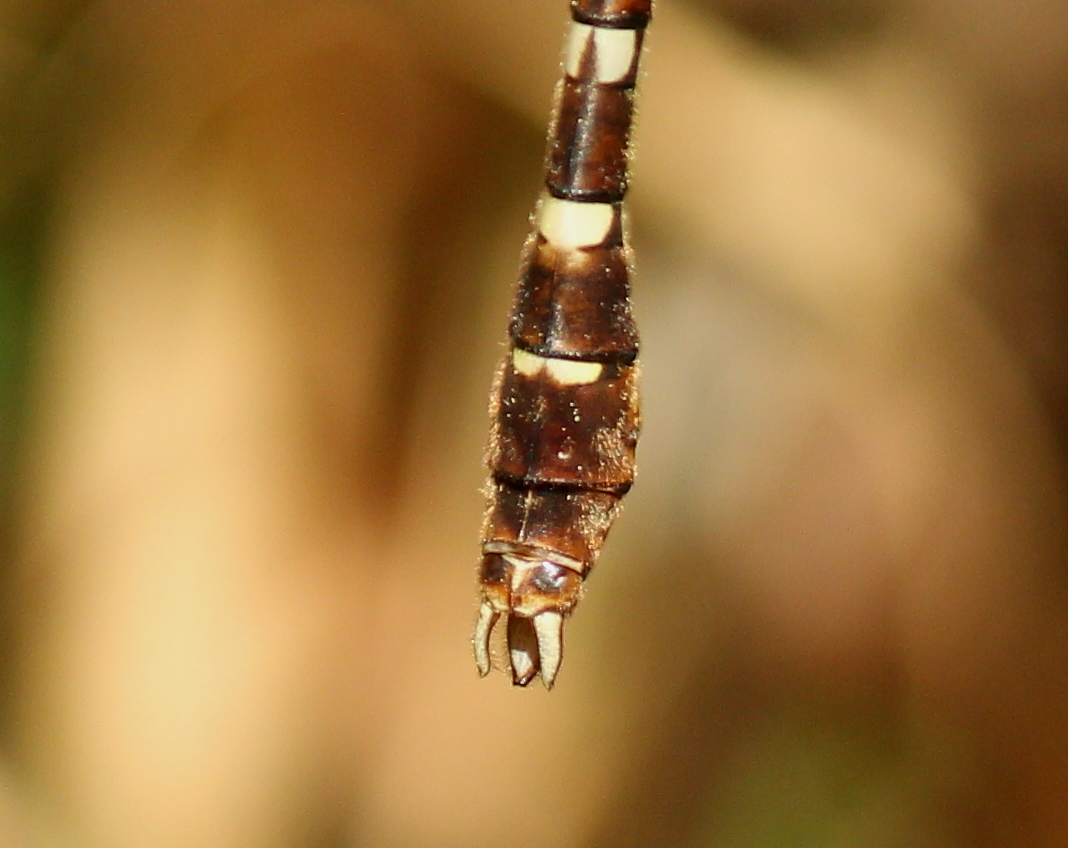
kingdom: Animalia
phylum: Arthropoda
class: Insecta
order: Odonata
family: Macromiidae
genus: Didymops
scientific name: Didymops transversa
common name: Stream cruiser
